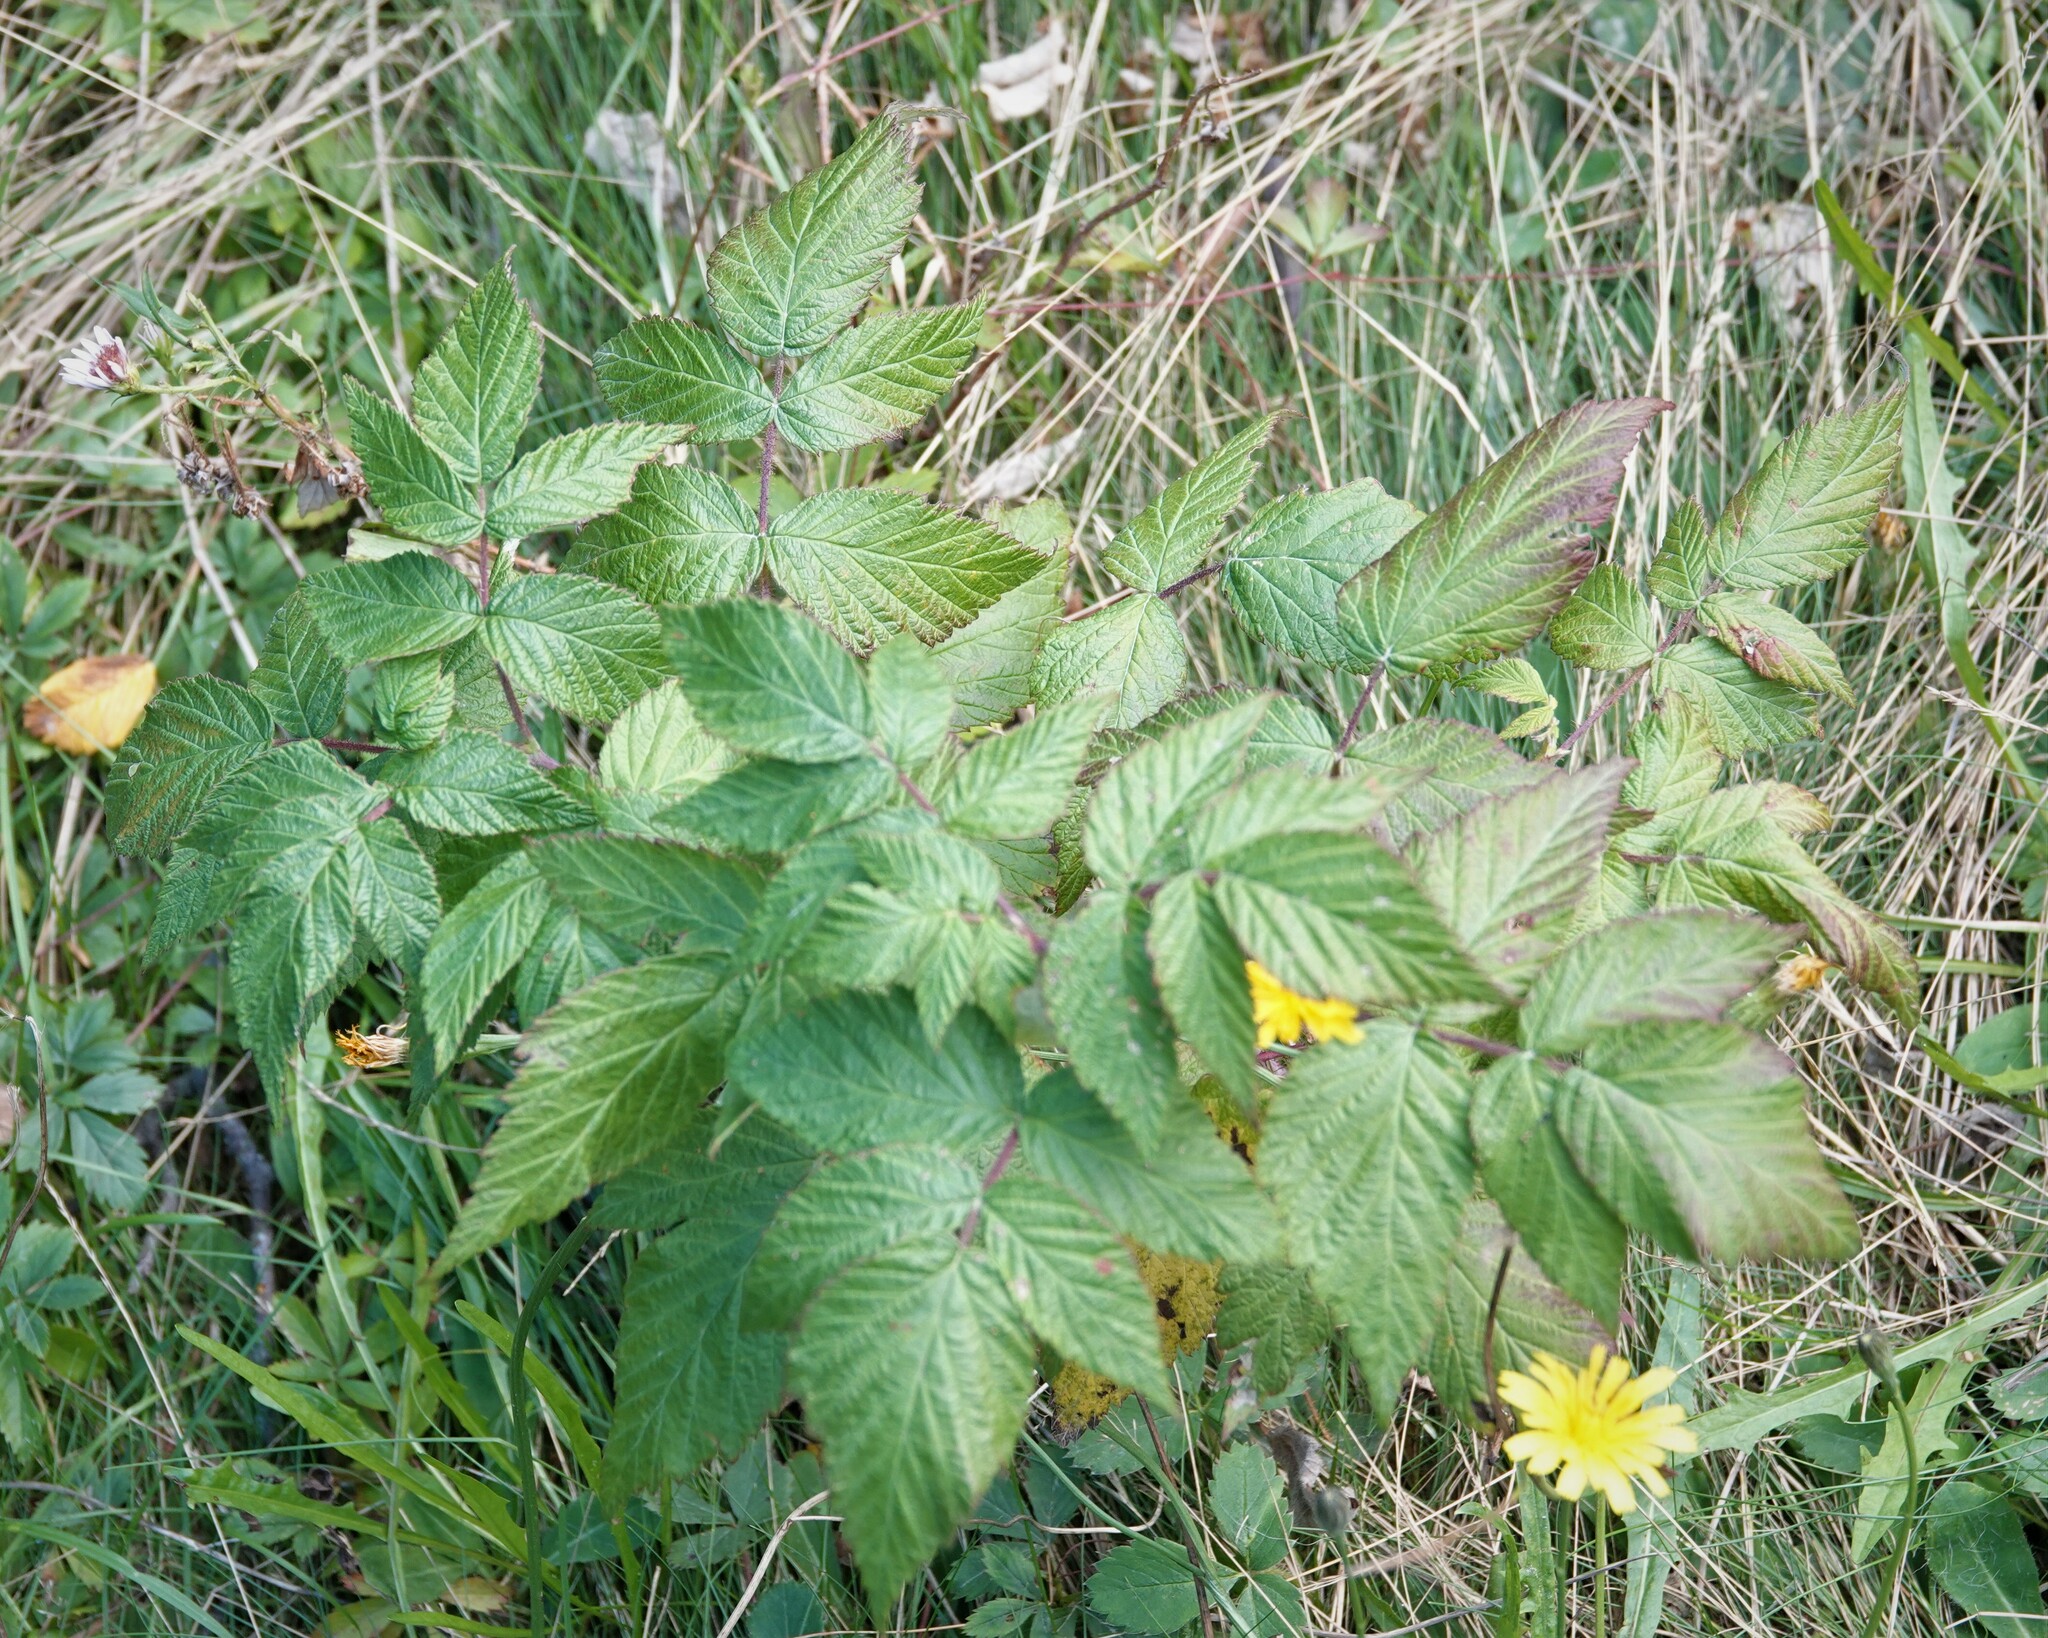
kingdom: Plantae
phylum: Tracheophyta
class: Magnoliopsida
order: Rosales
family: Rosaceae
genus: Rubus
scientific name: Rubus idaeus
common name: Raspberry
